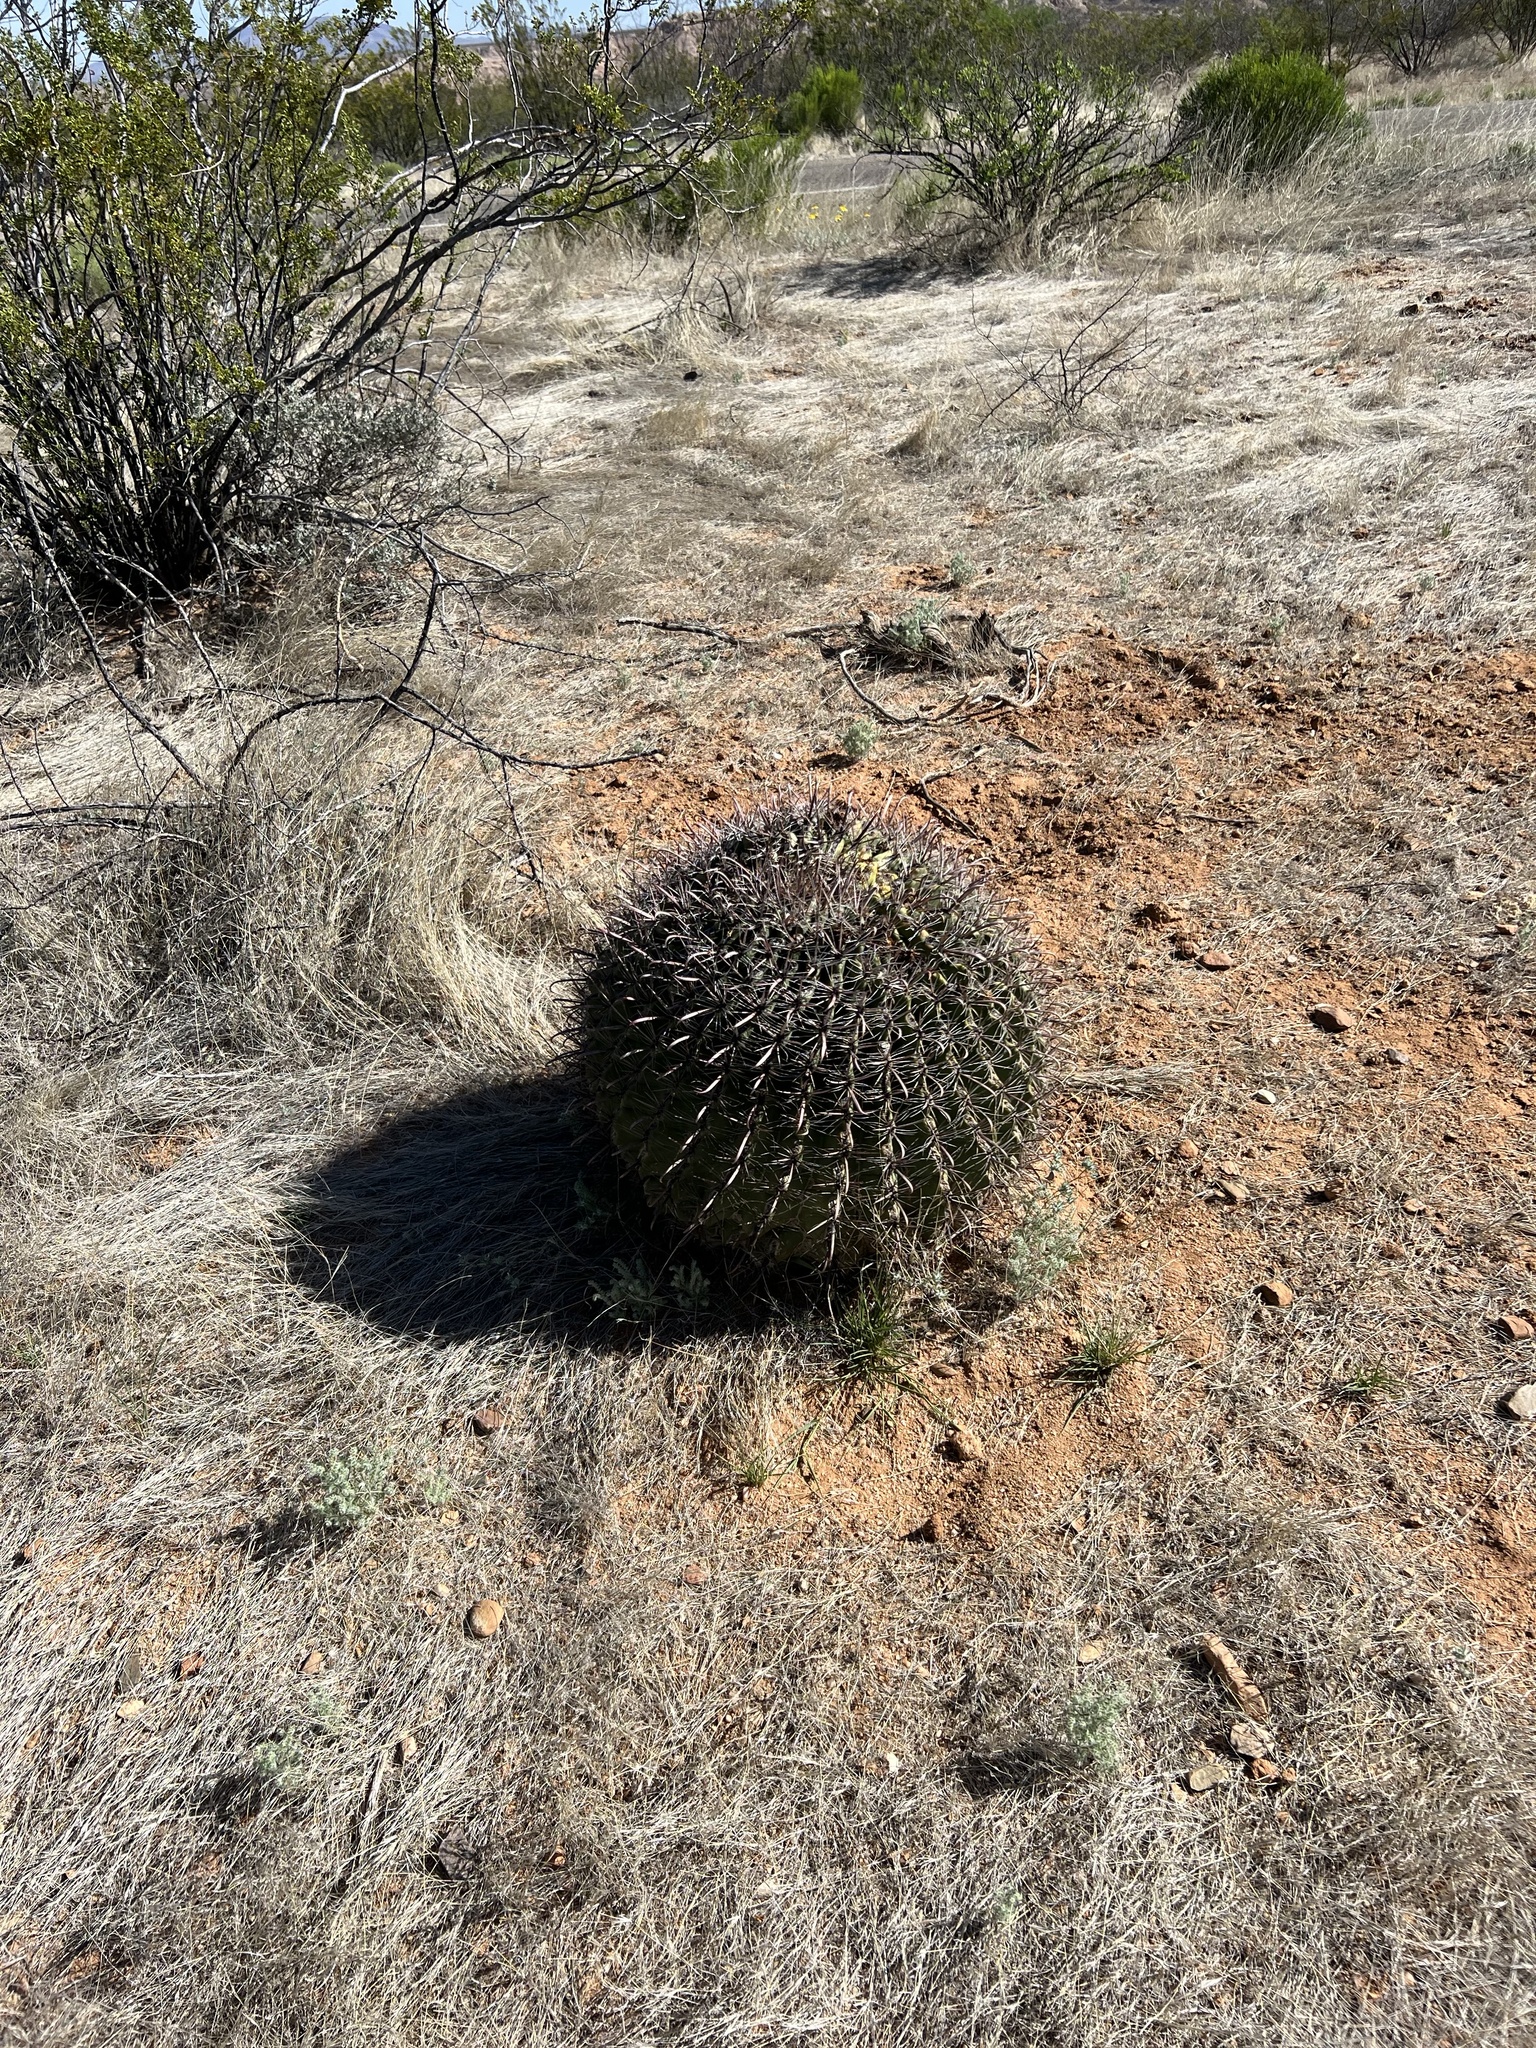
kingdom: Plantae
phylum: Tracheophyta
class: Magnoliopsida
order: Caryophyllales
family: Cactaceae
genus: Ferocactus
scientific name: Ferocactus wislizeni
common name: Candy barrel cactus
